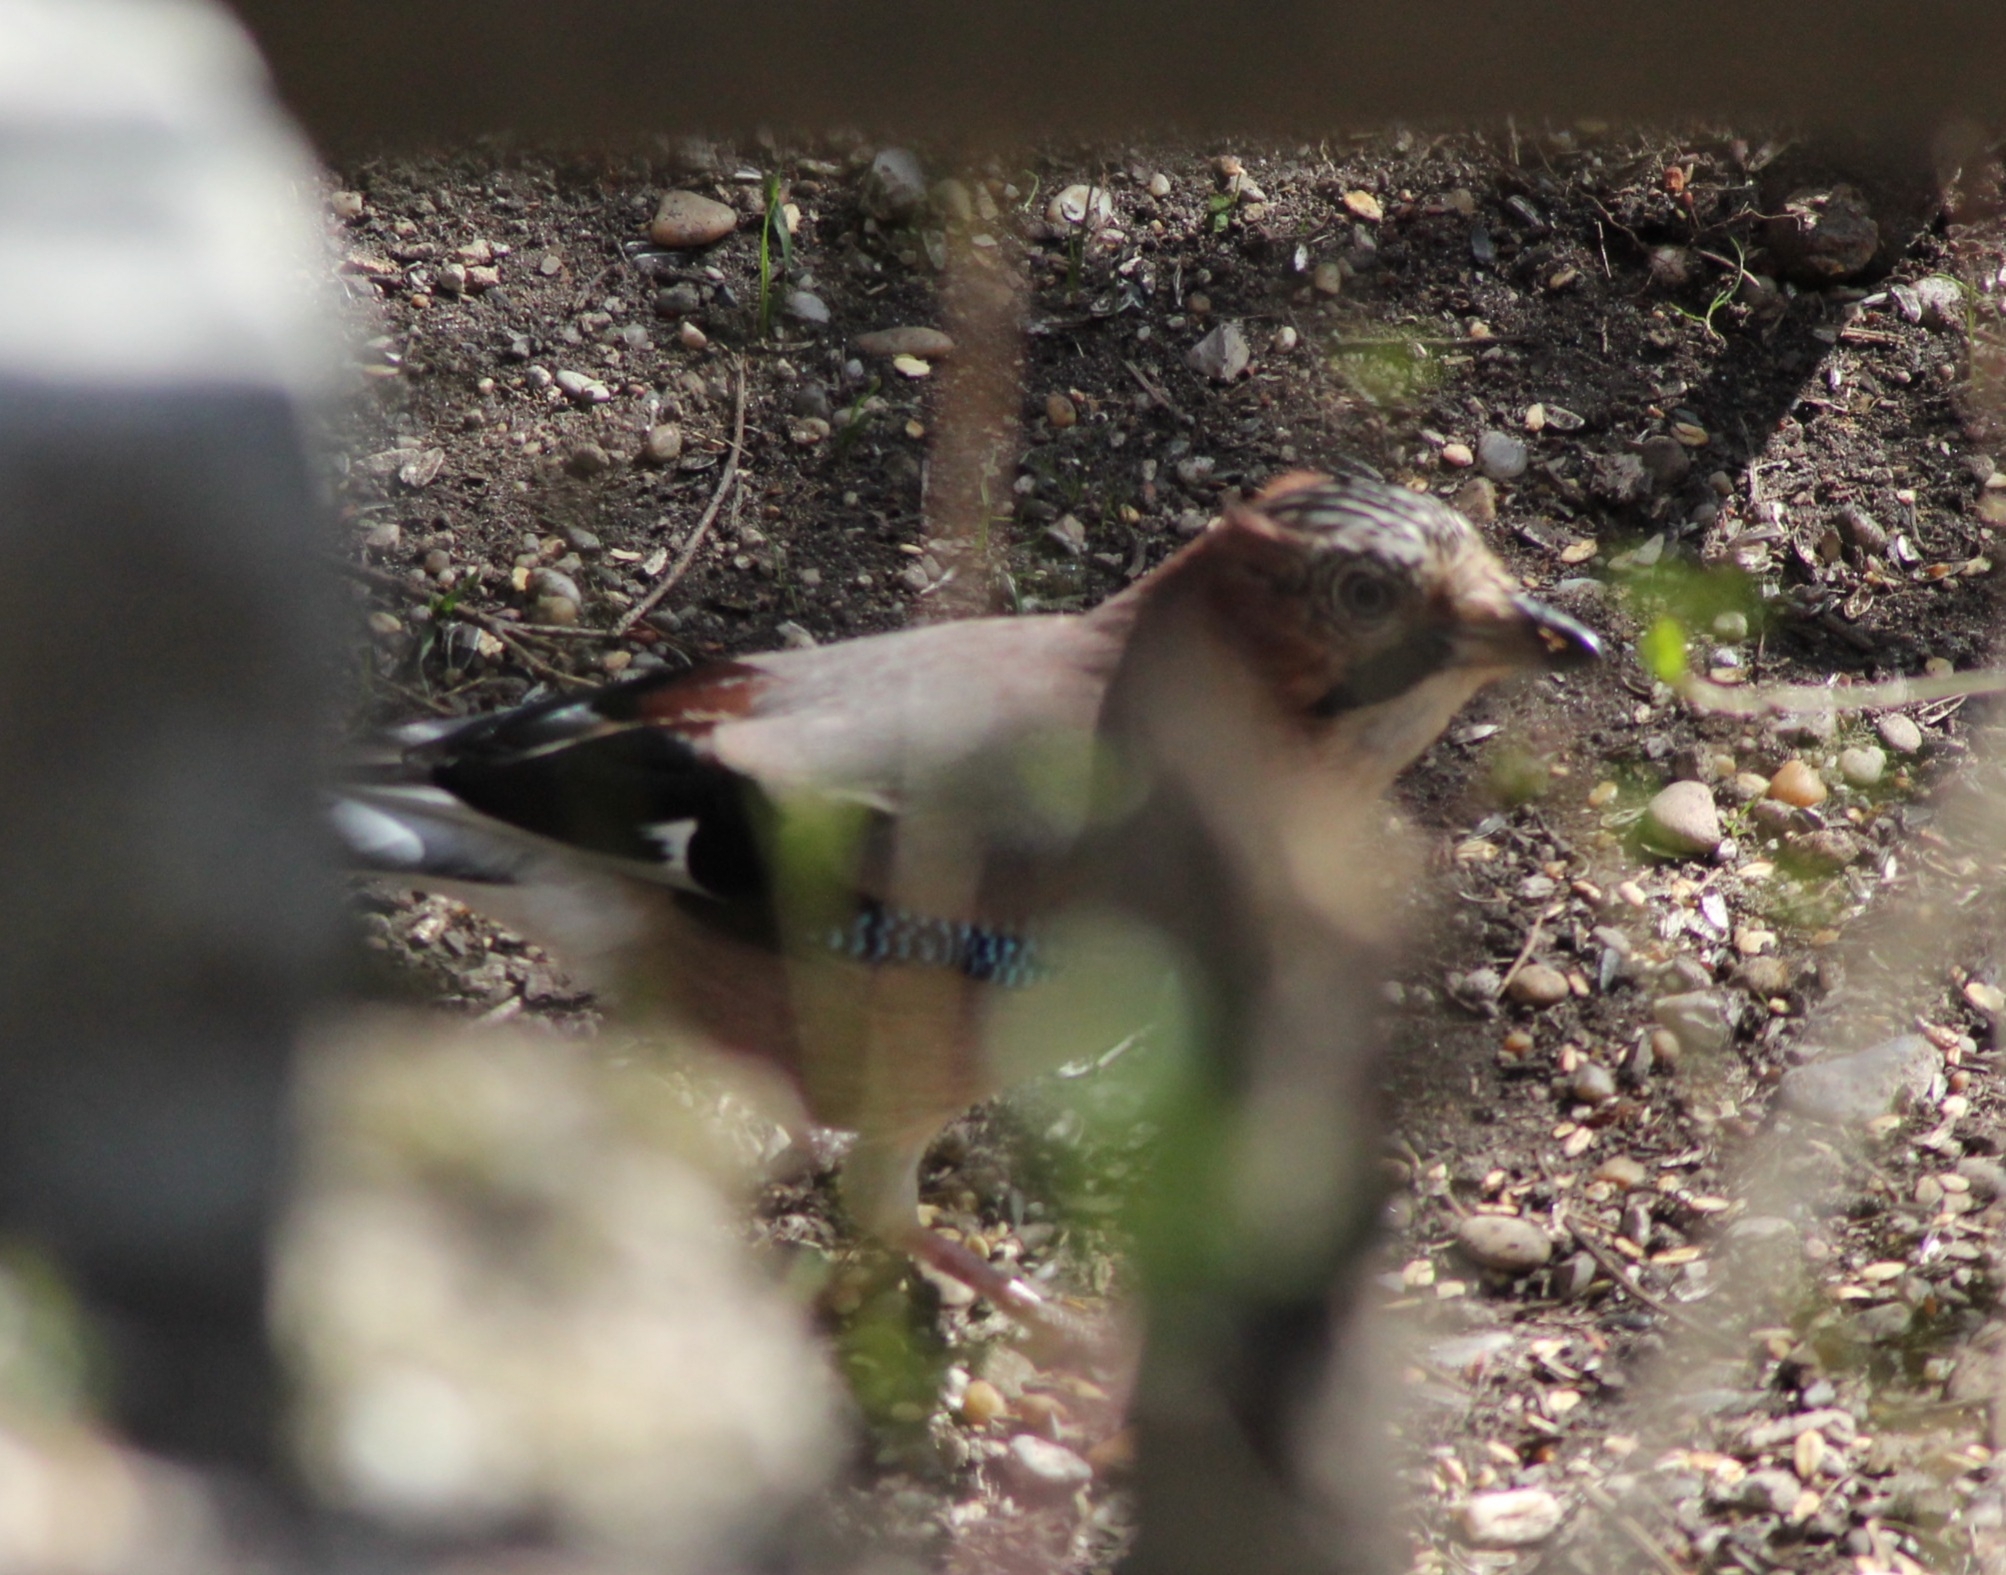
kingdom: Animalia
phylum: Chordata
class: Aves
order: Passeriformes
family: Corvidae
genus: Garrulus
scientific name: Garrulus glandarius
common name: Eurasian jay
